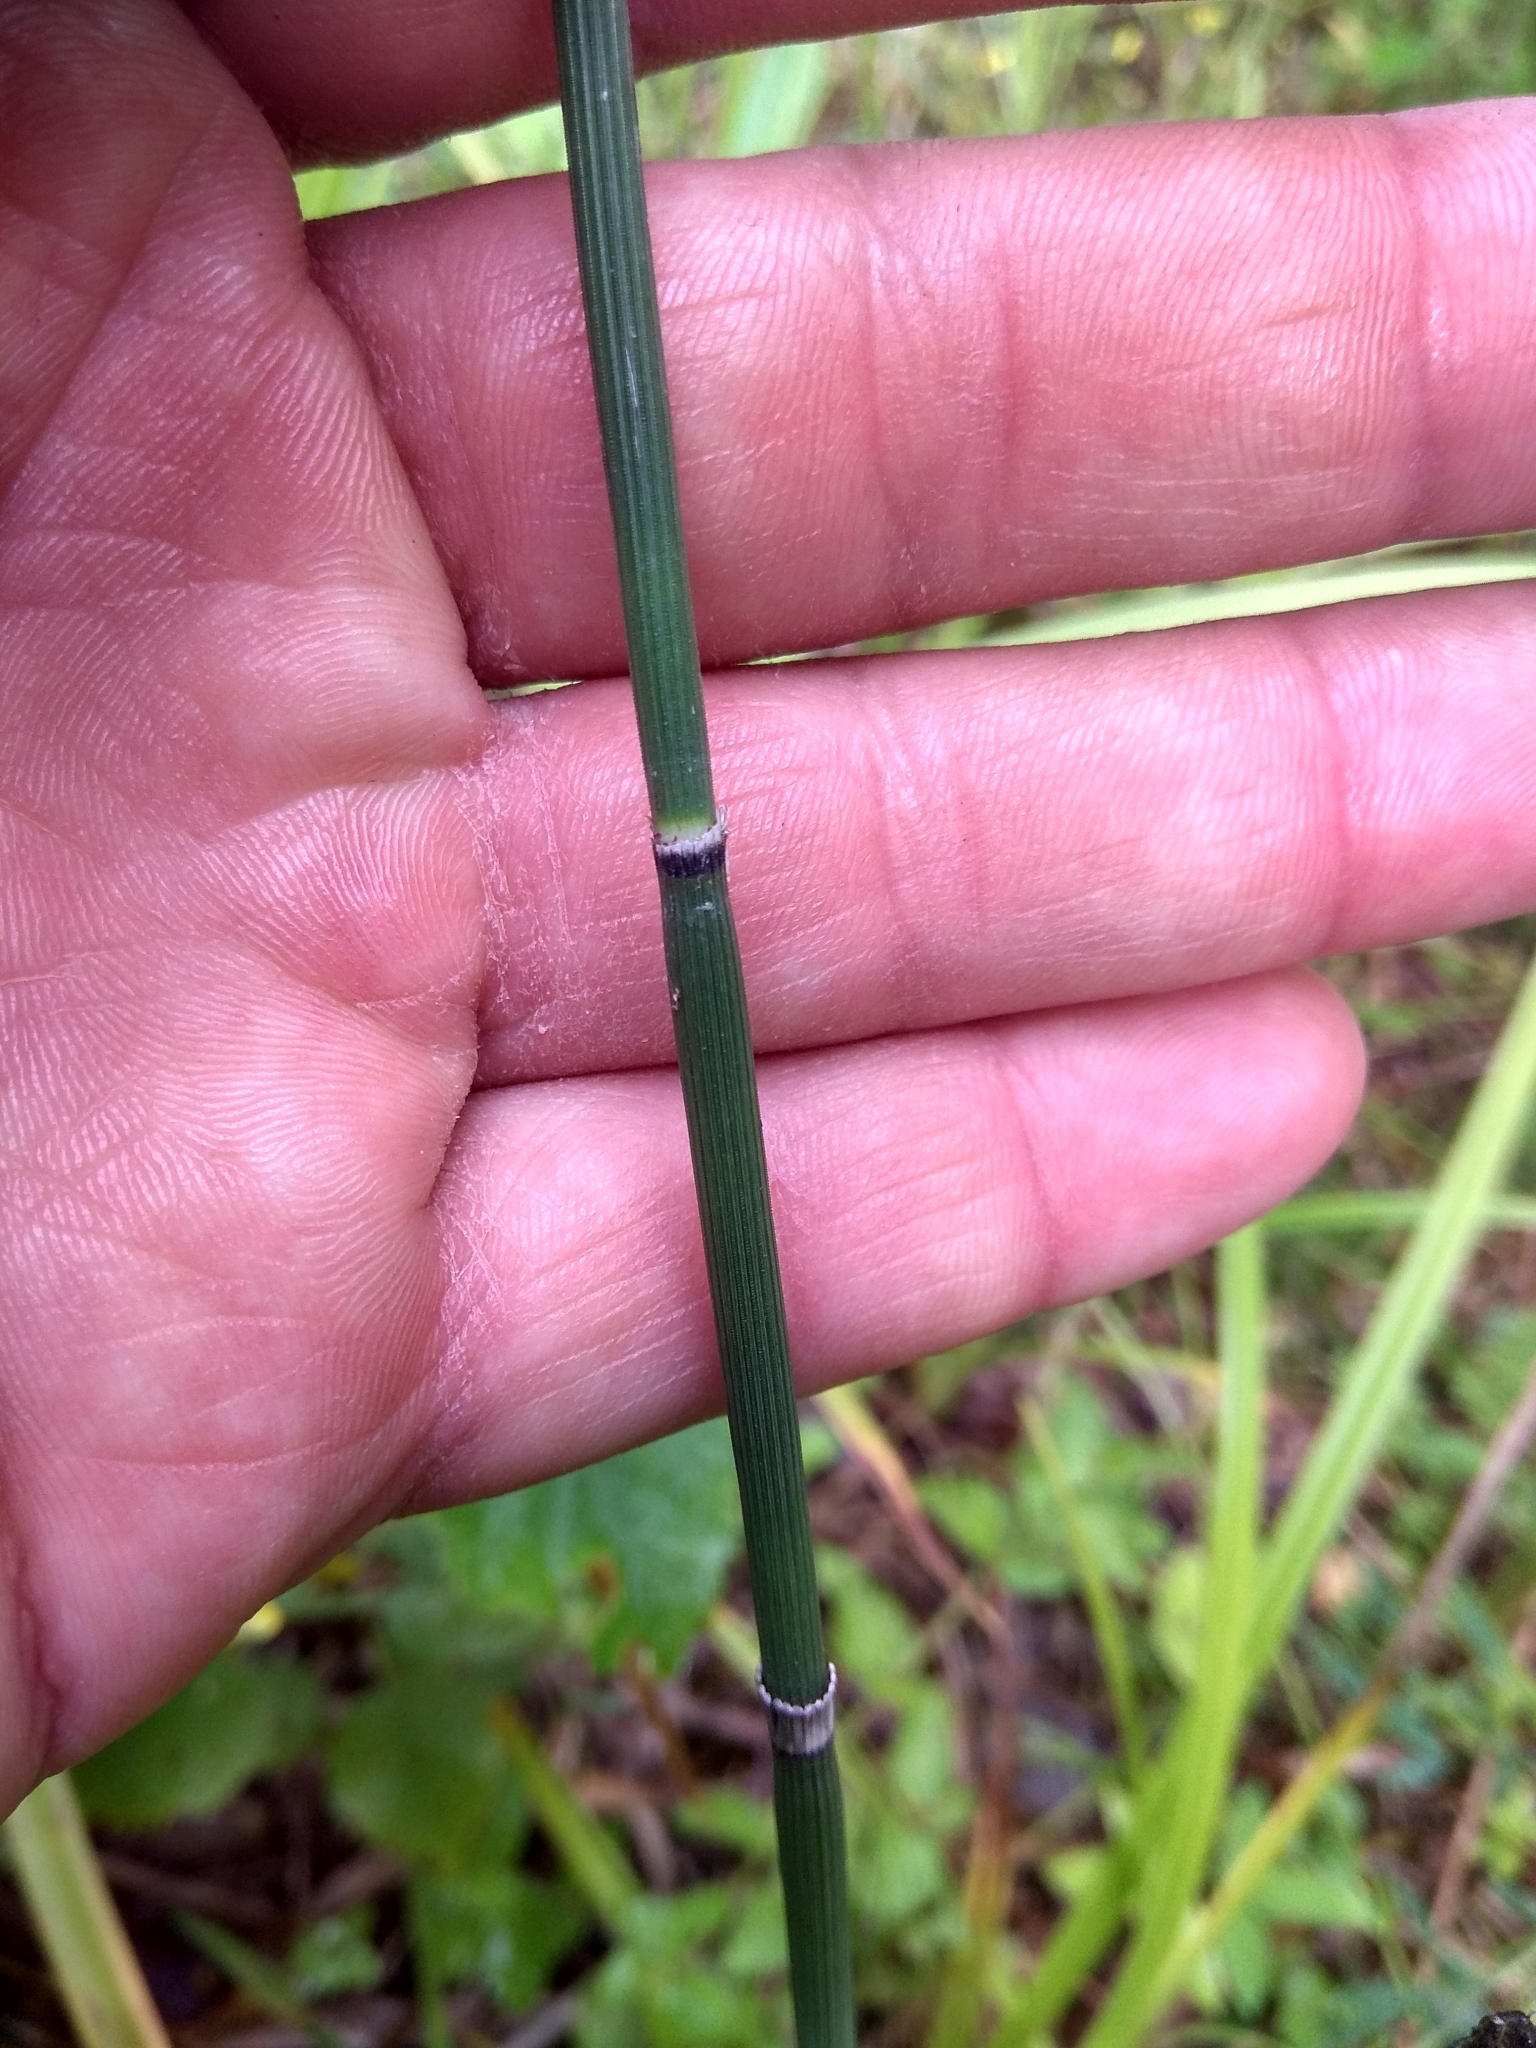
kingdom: Plantae
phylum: Tracheophyta
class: Polypodiopsida
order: Equisetales
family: Equisetaceae
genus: Equisetum
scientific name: Equisetum hyemale
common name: Rough horsetail
